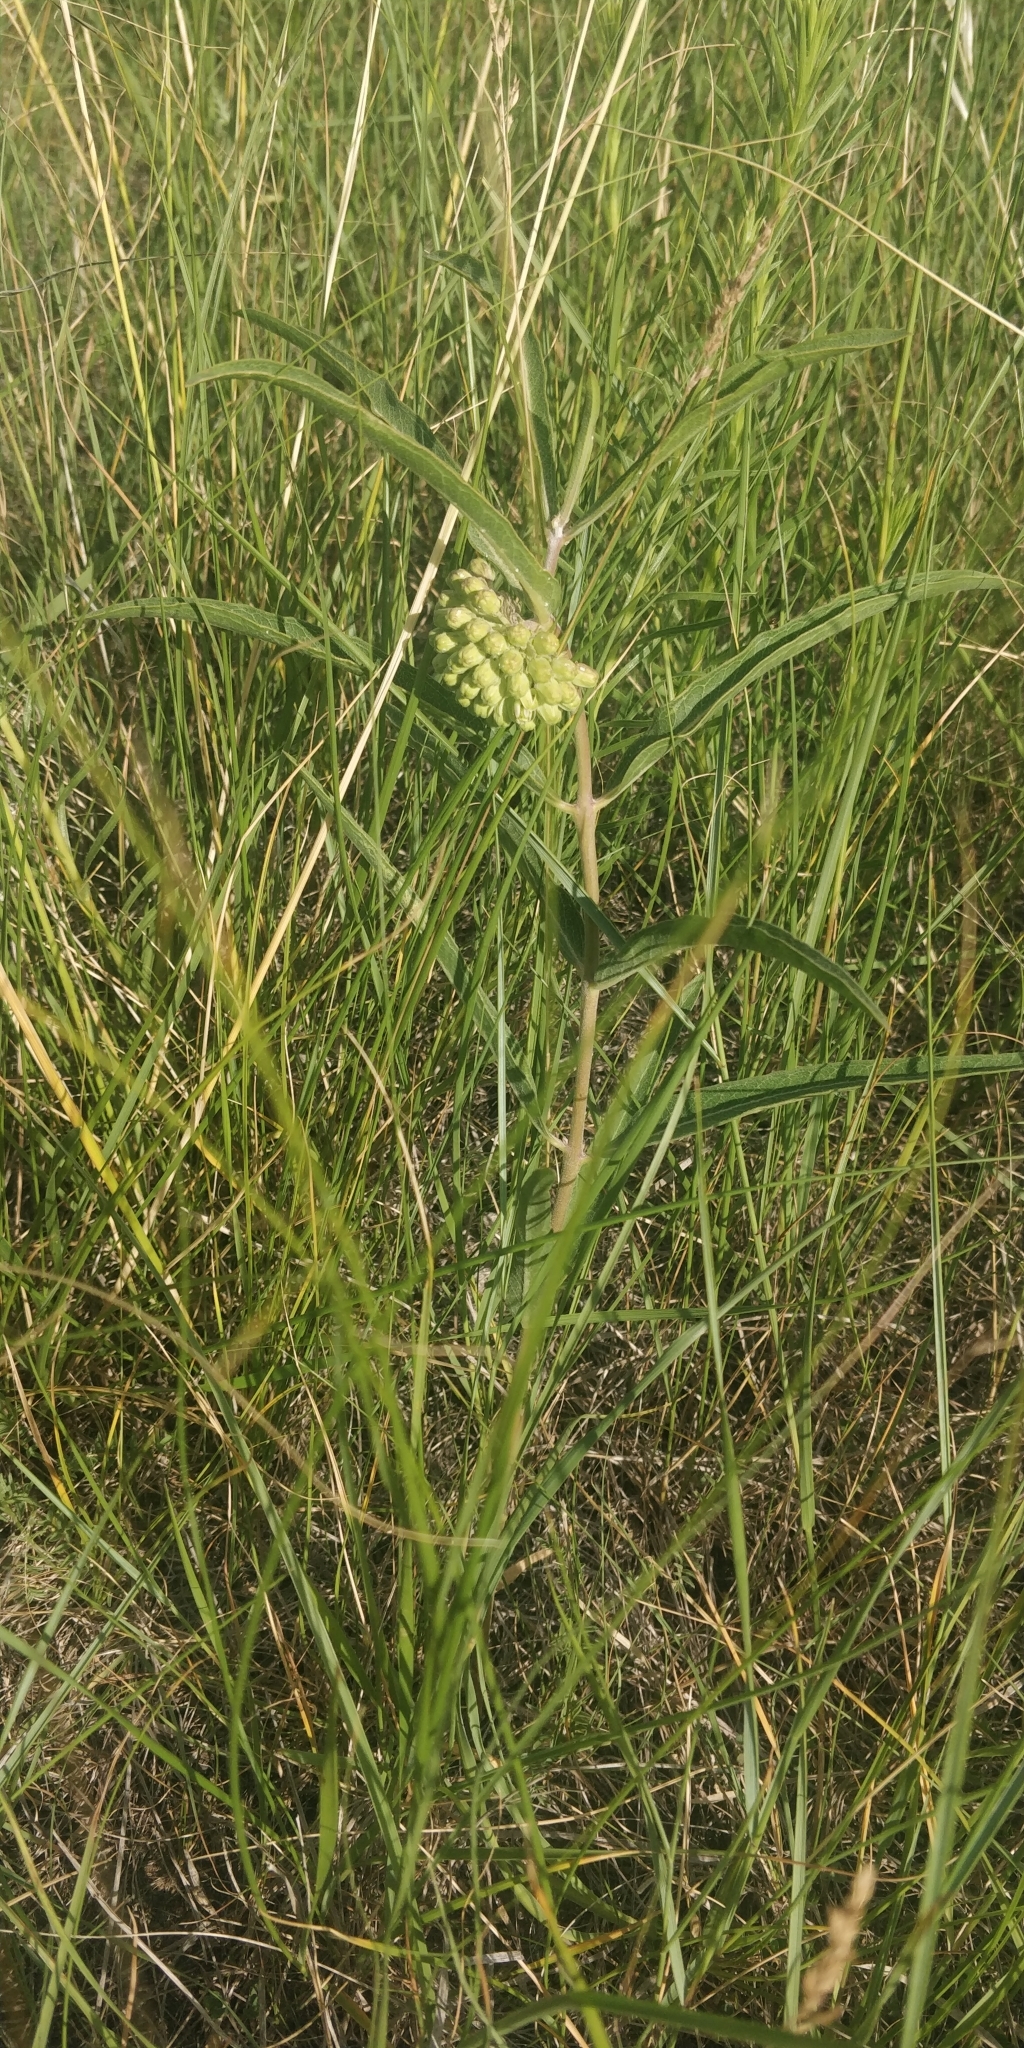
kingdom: Plantae
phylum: Tracheophyta
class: Magnoliopsida
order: Gentianales
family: Apocynaceae
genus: Asclepias
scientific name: Asclepias viridiflora
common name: Green comet milkweed
